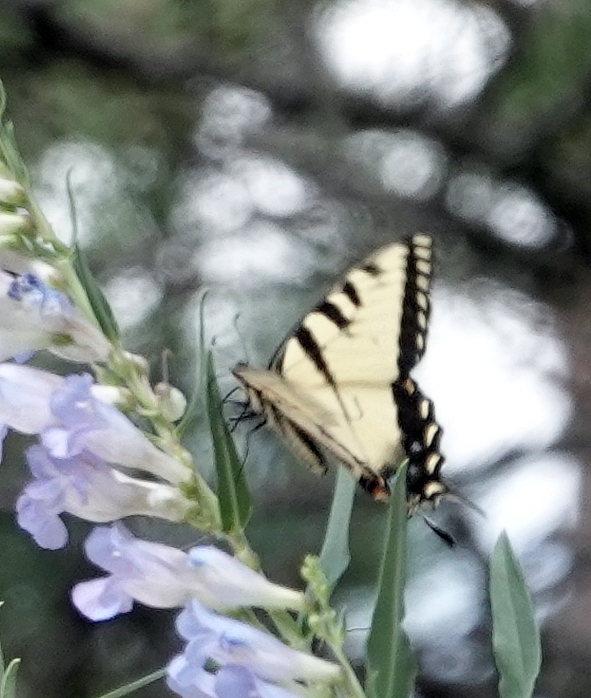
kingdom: Animalia
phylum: Arthropoda
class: Insecta
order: Lepidoptera
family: Papilionidae
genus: Papilio
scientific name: Papilio glaucus
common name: Tiger swallowtail
